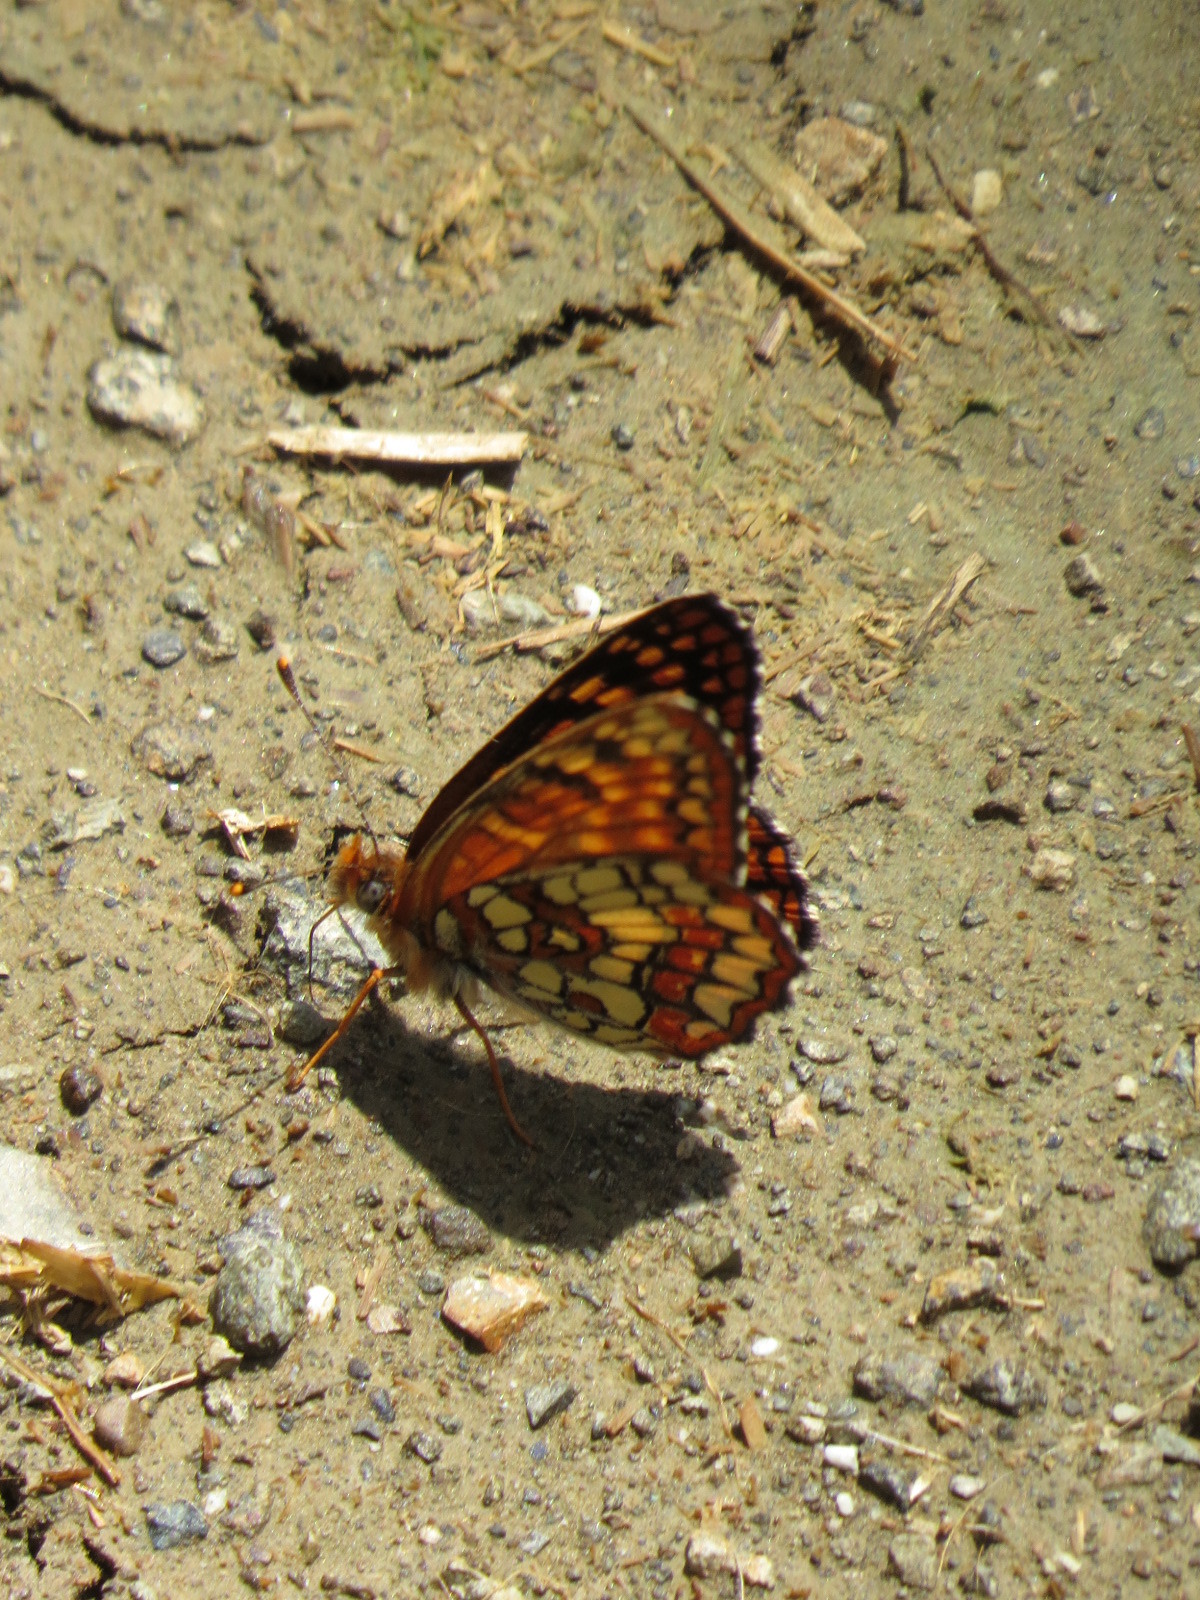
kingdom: Animalia
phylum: Arthropoda
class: Insecta
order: Lepidoptera
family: Nymphalidae
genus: Chlosyne
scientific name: Chlosyne palla
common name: Northern checkerspot
